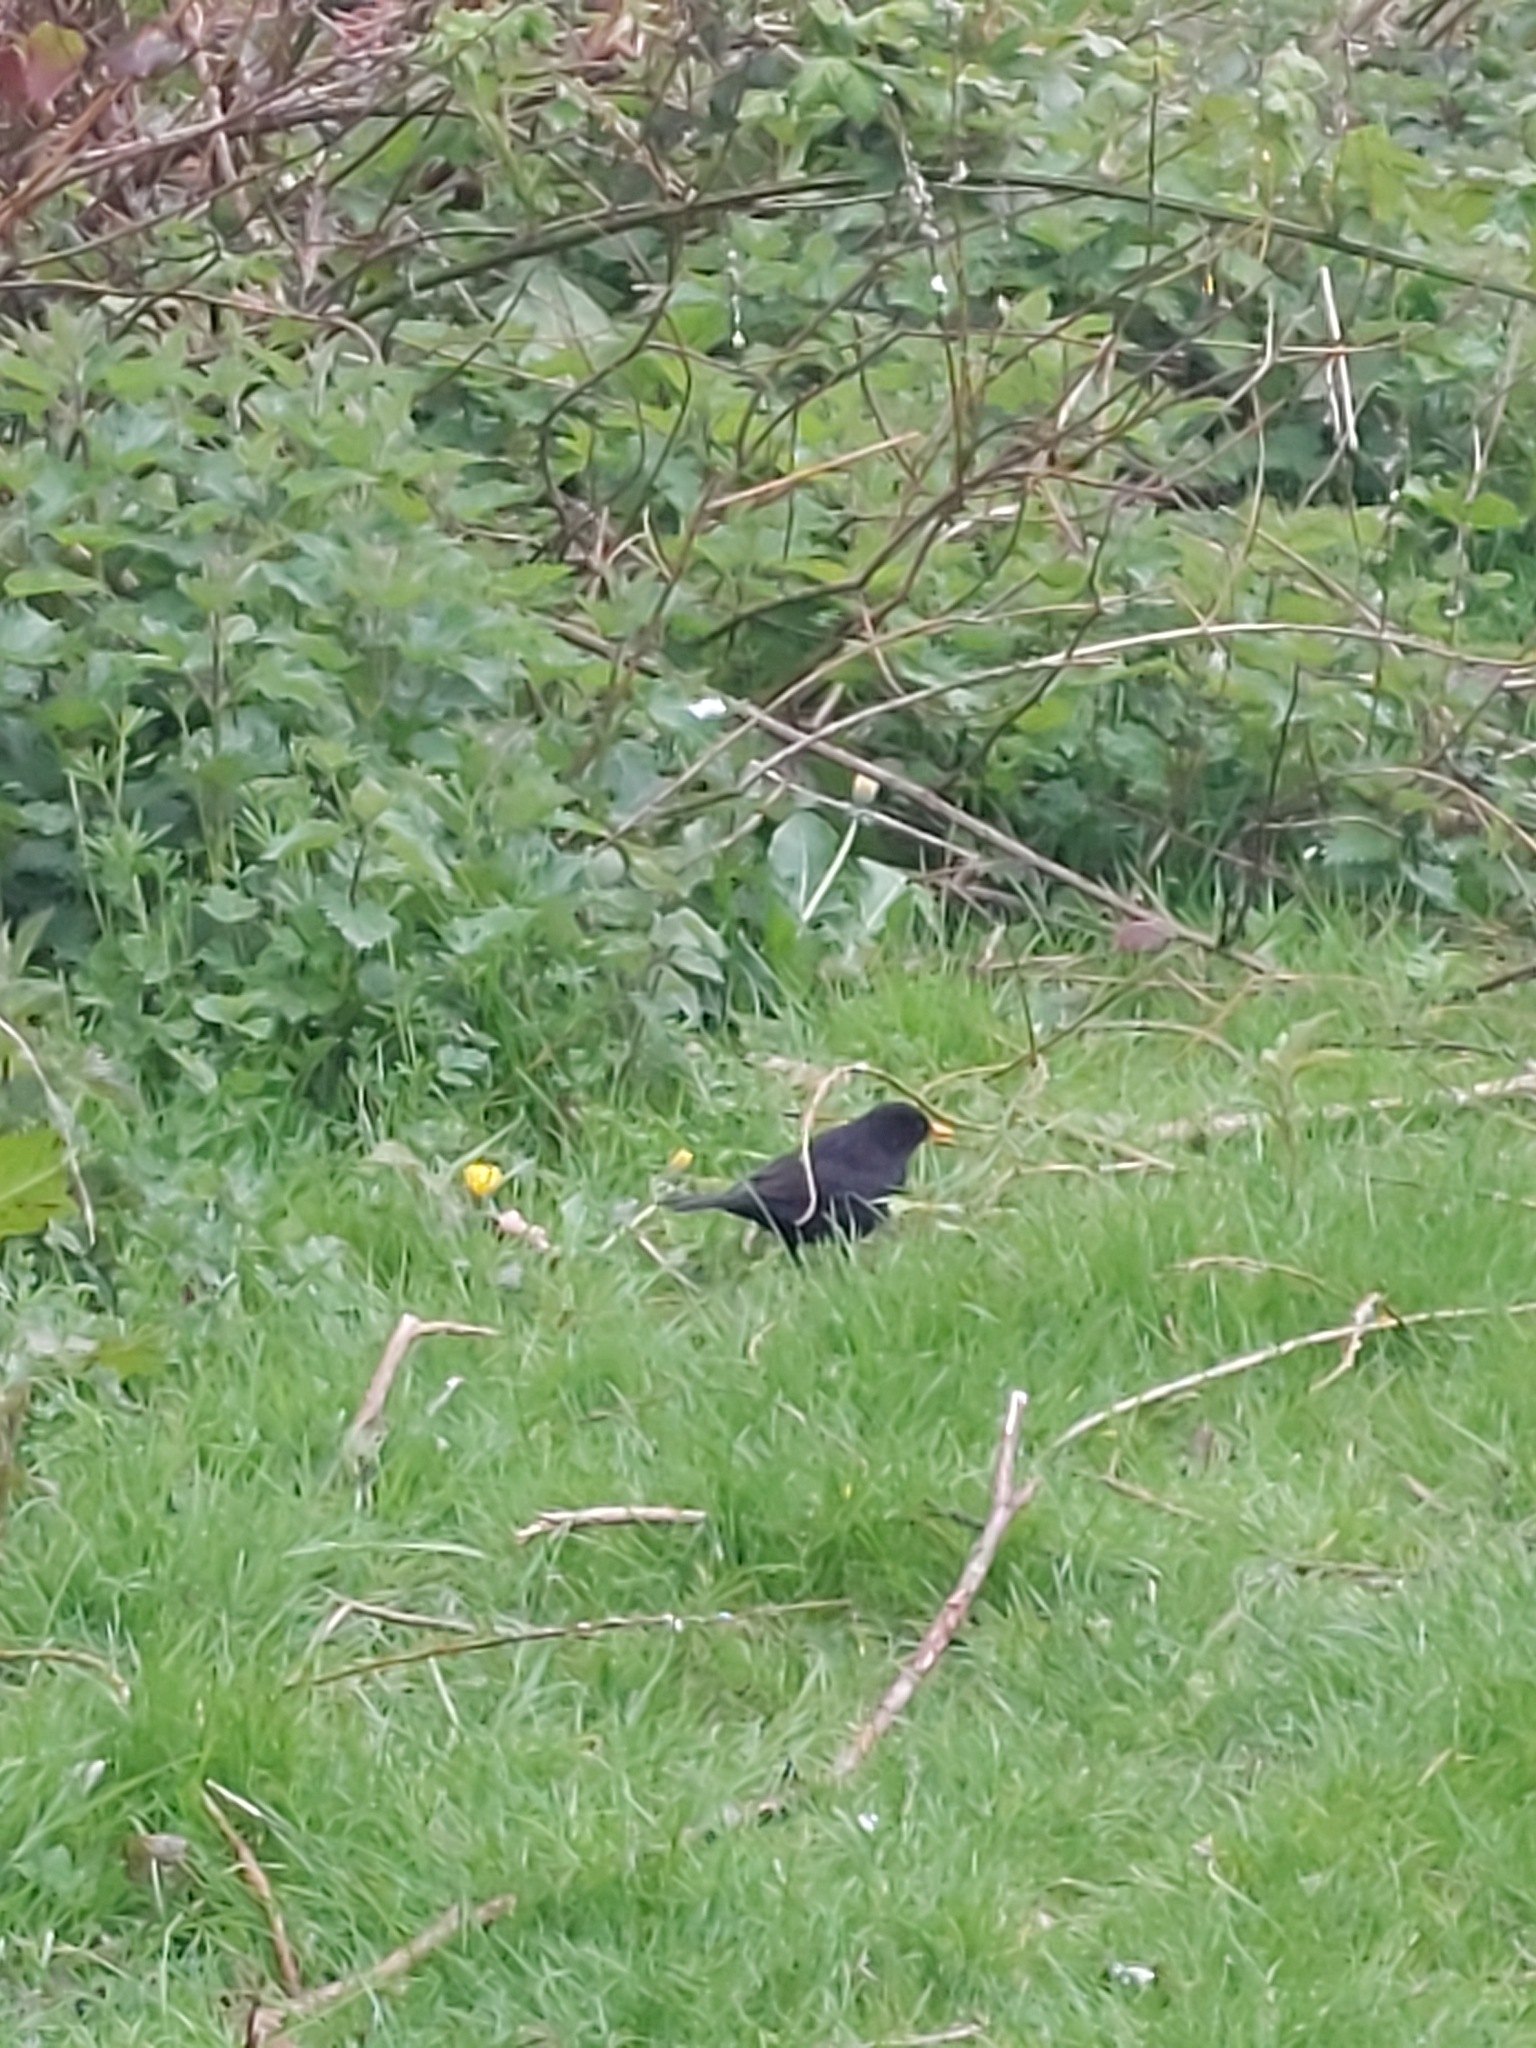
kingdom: Animalia
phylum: Chordata
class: Aves
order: Passeriformes
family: Turdidae
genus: Turdus
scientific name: Turdus merula
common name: Common blackbird
